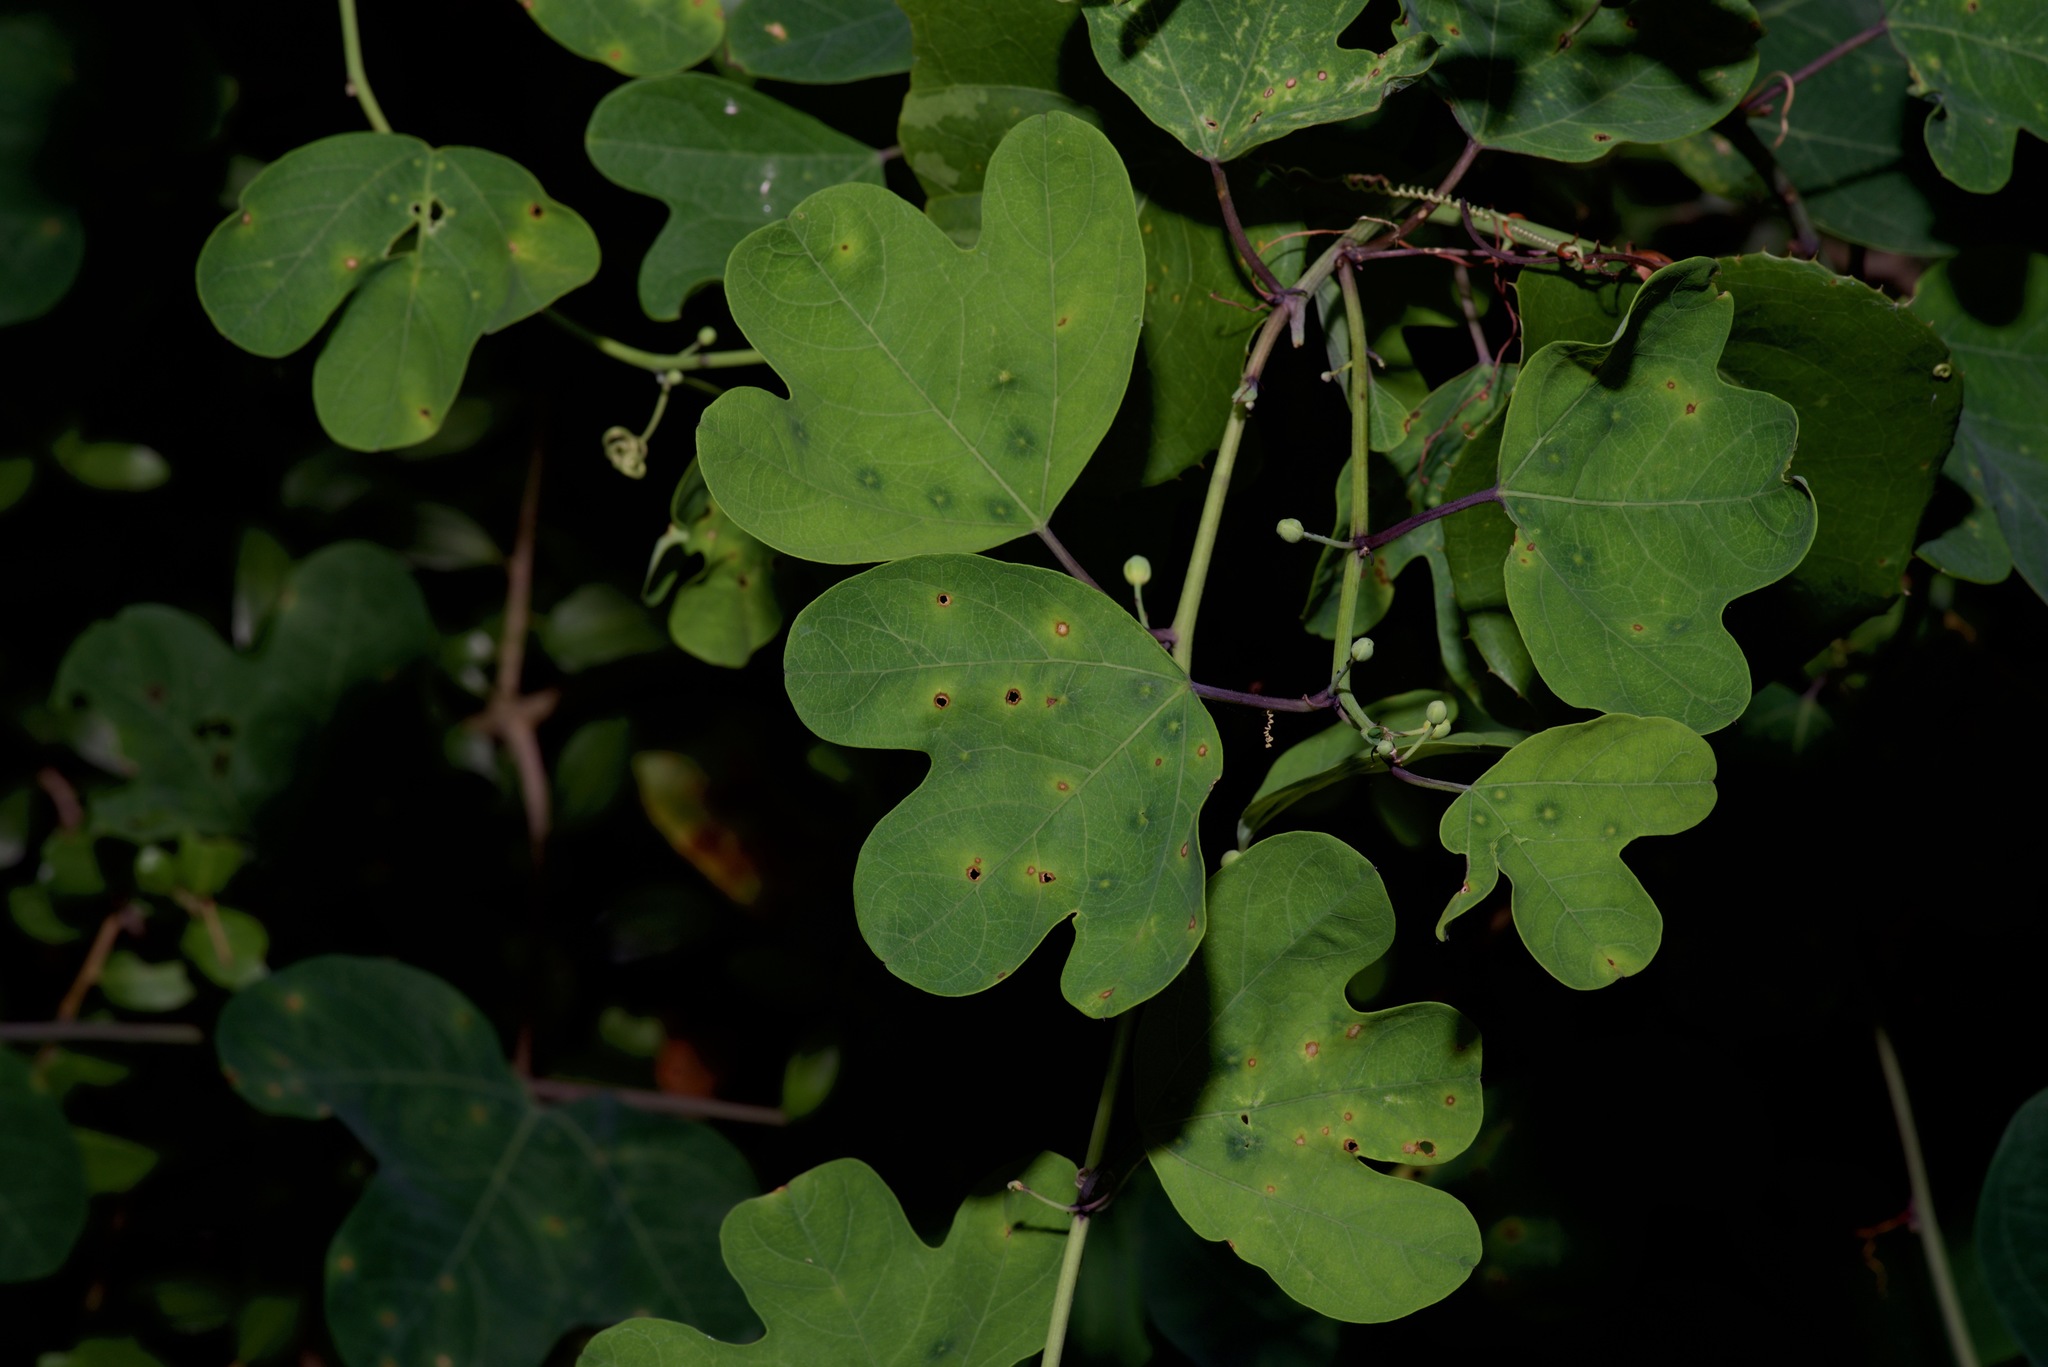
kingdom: Plantae
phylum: Tracheophyta
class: Magnoliopsida
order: Malpighiales
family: Passifloraceae
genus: Passiflora
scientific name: Passiflora affinis
